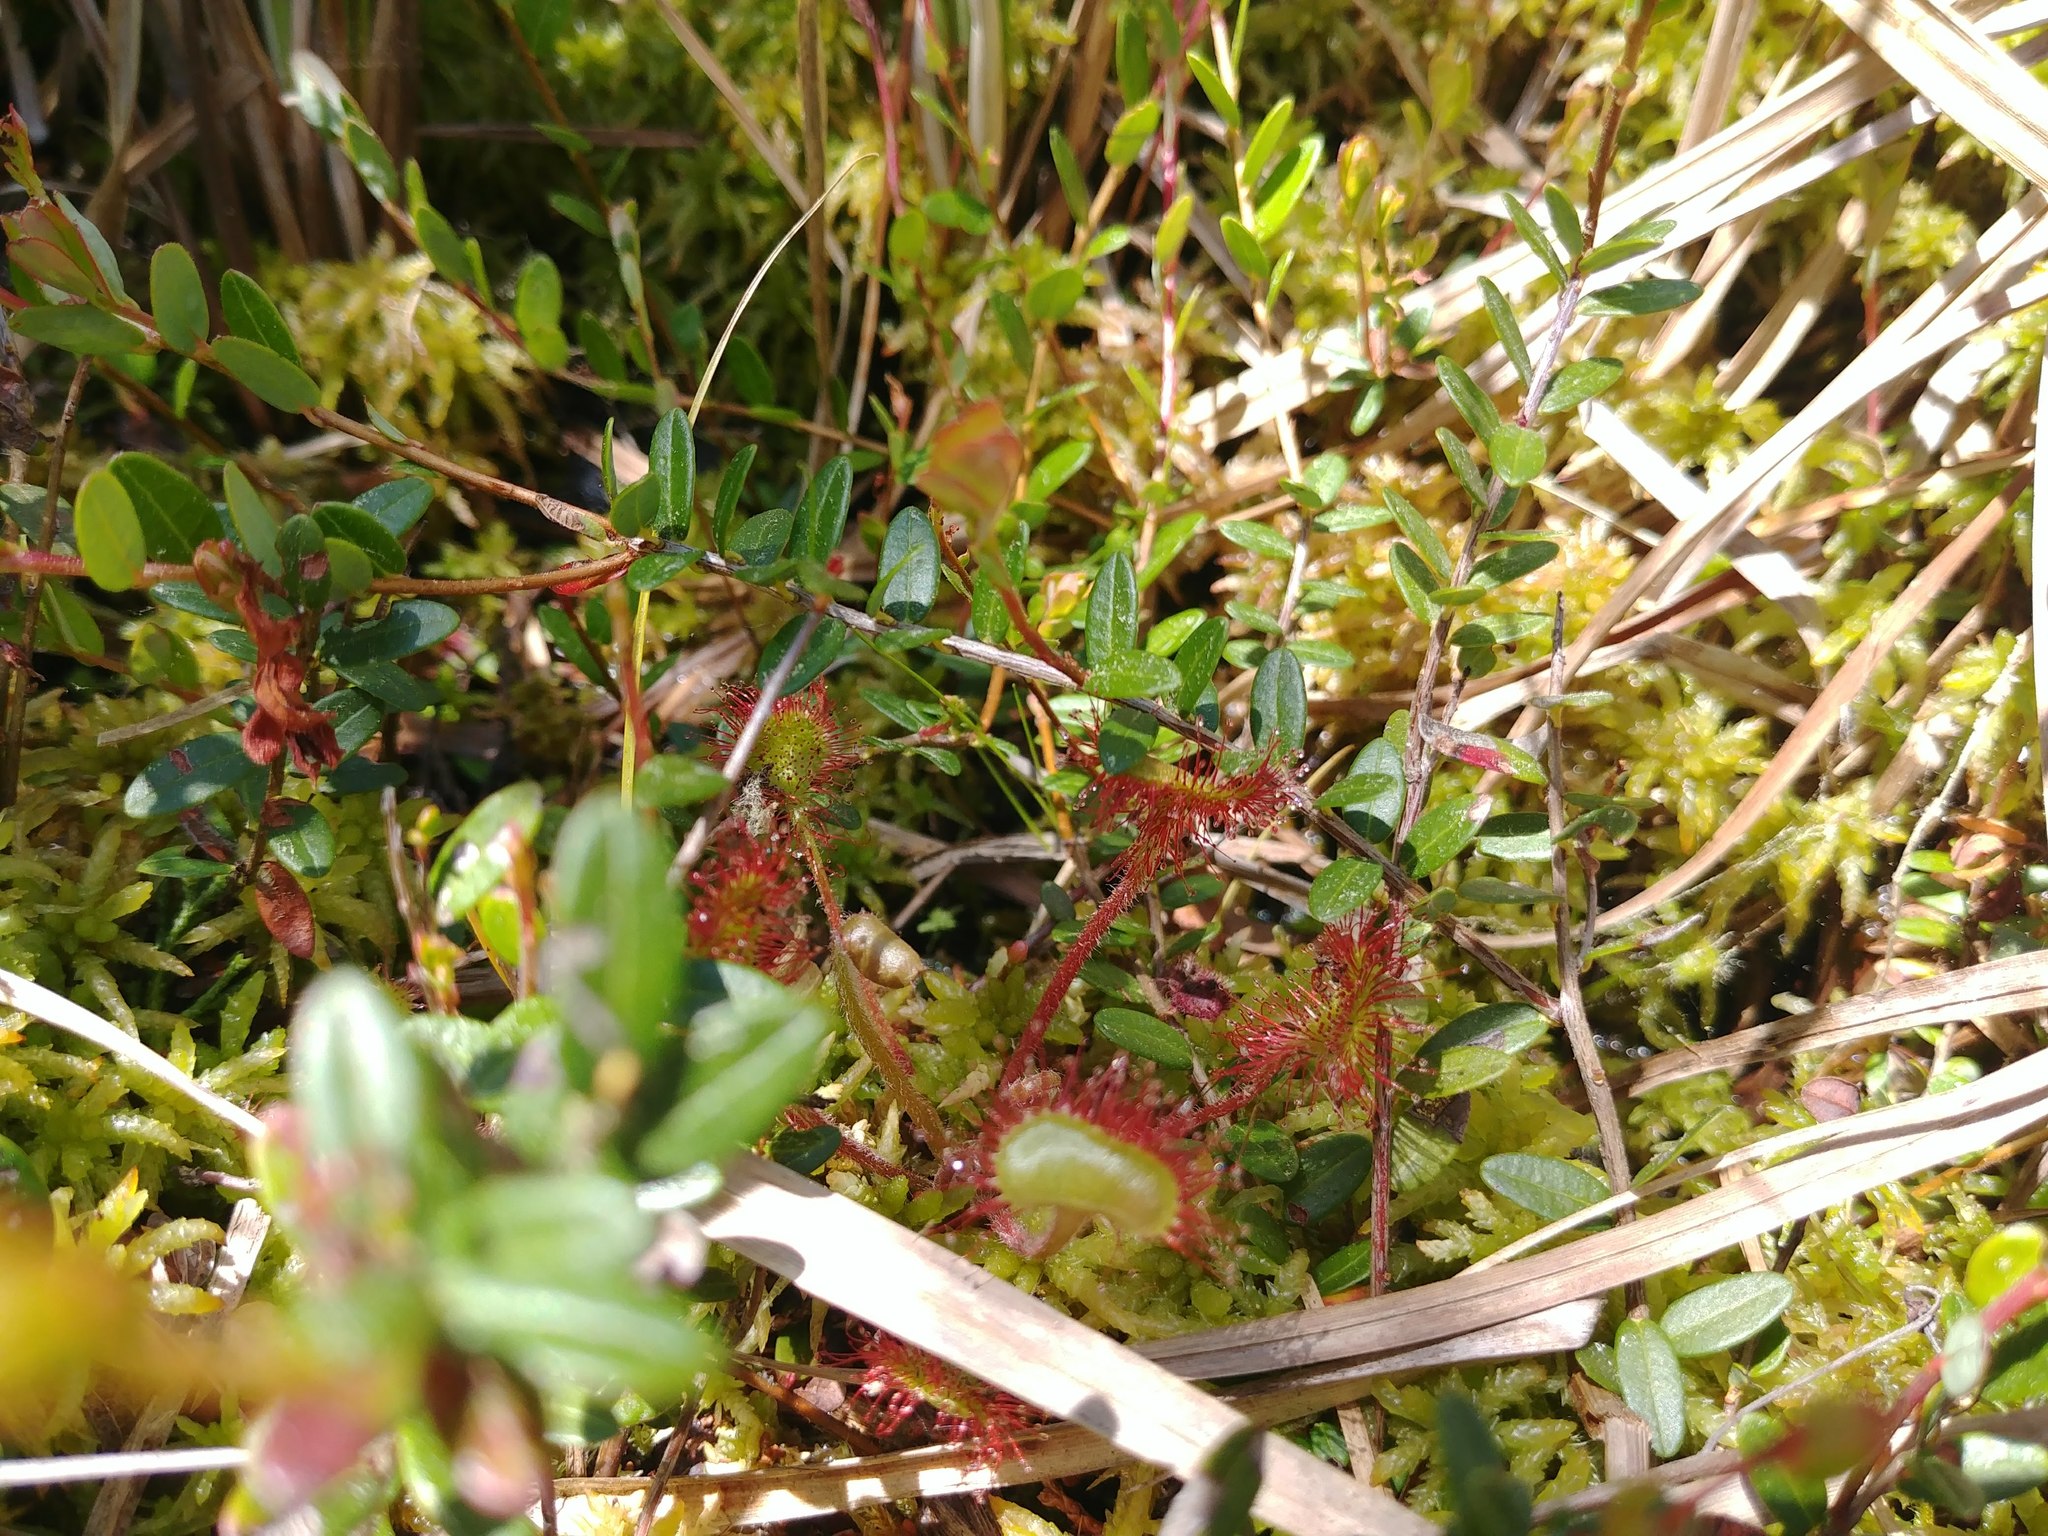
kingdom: Plantae
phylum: Tracheophyta
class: Magnoliopsida
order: Caryophyllales
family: Droseraceae
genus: Drosera
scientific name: Drosera rotundifolia
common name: Round-leaved sundew
